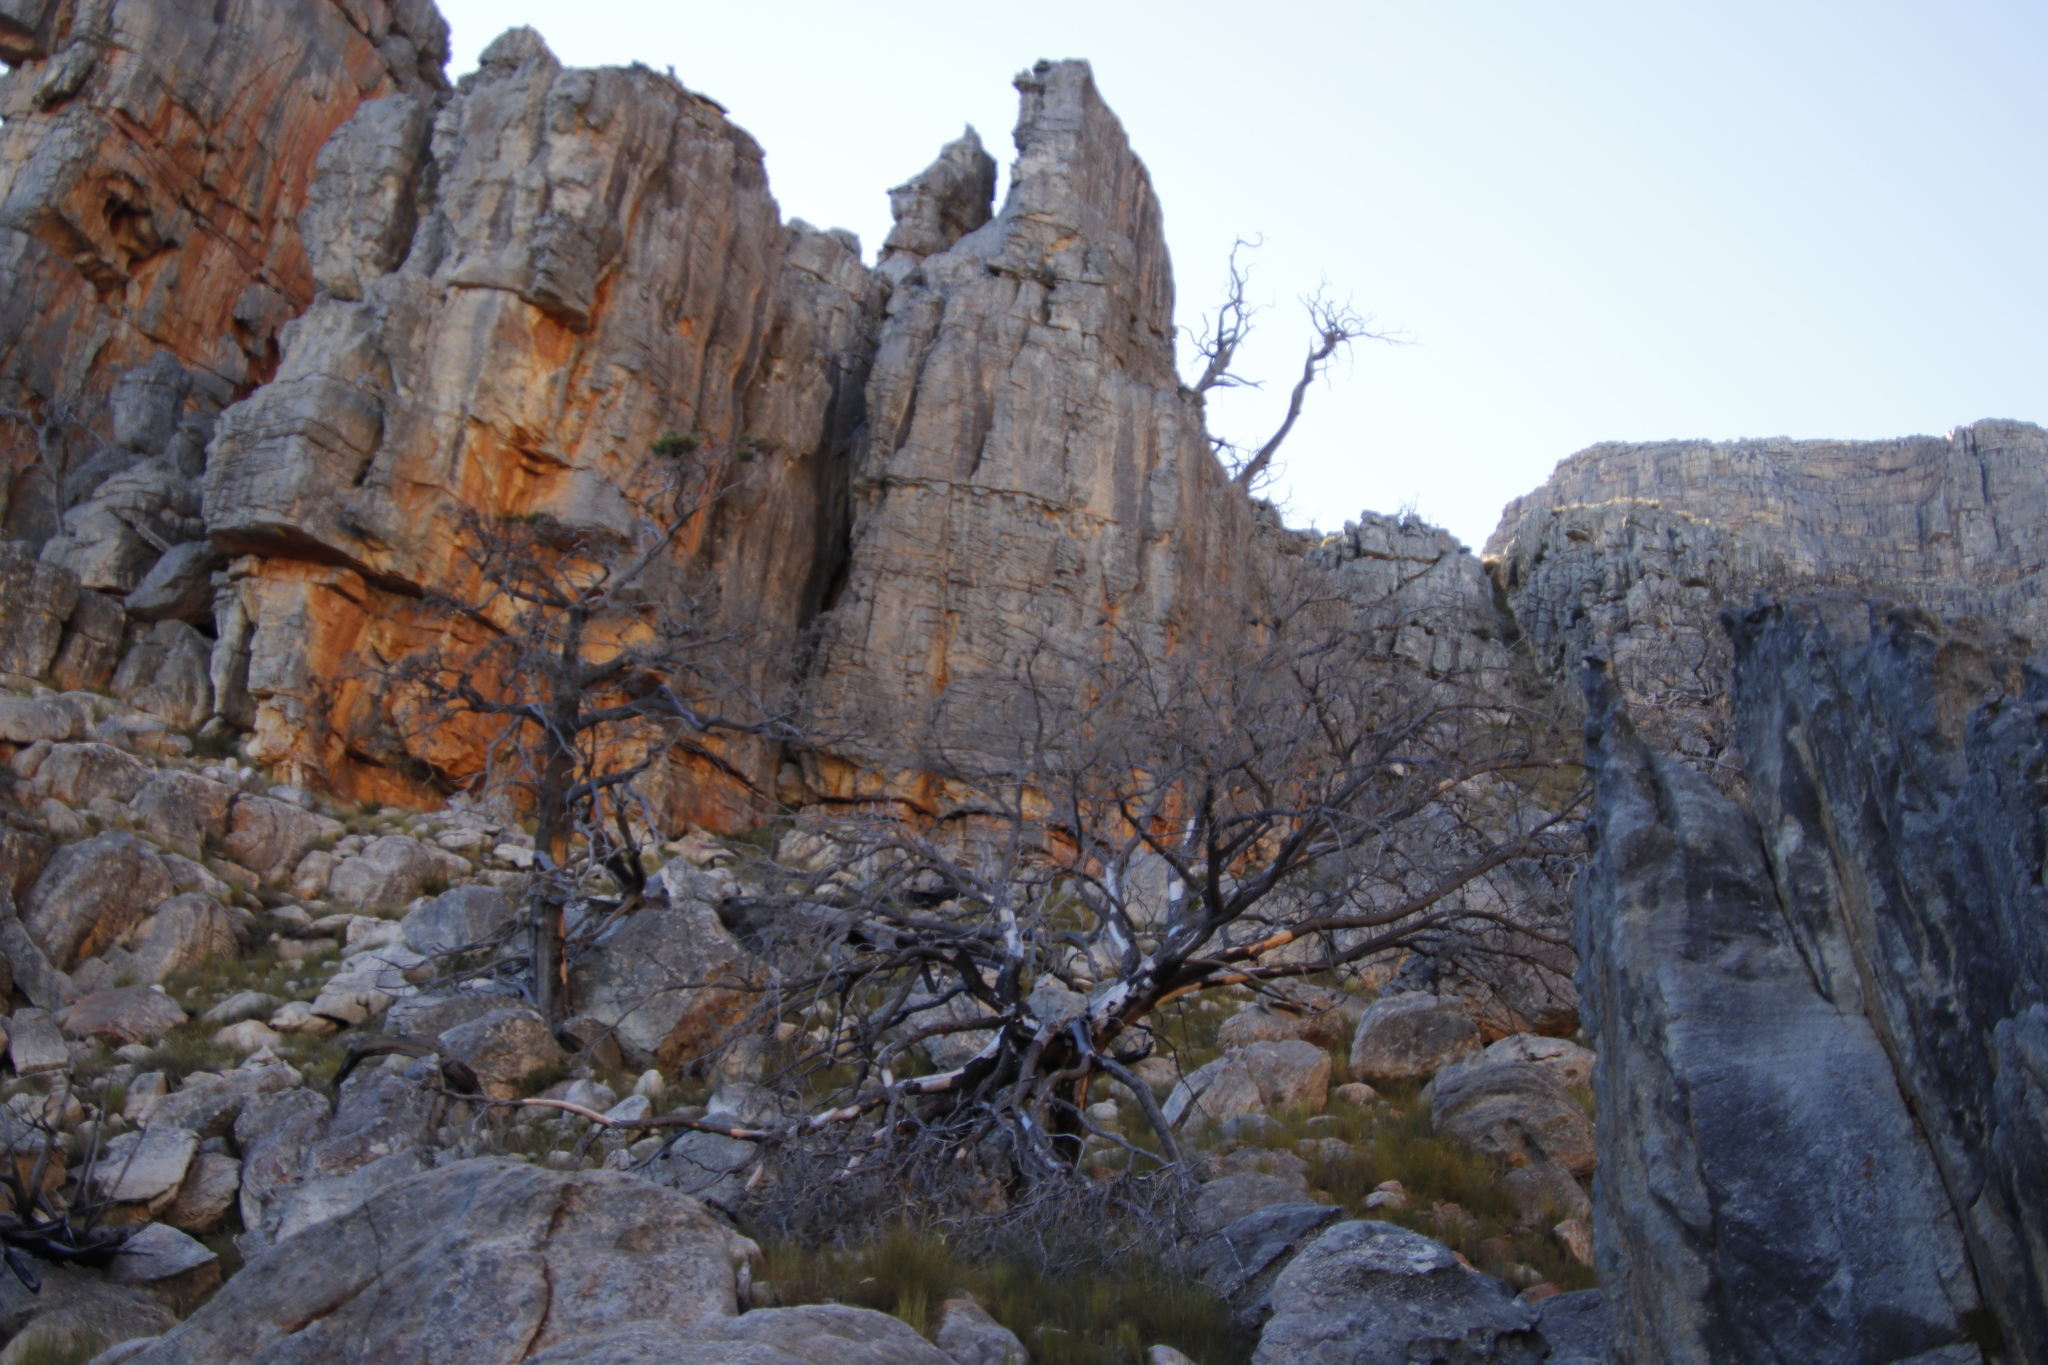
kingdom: Plantae
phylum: Tracheophyta
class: Pinopsida
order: Pinales
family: Cupressaceae
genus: Widdringtonia
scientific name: Widdringtonia nodiflora
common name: Cape cypress
